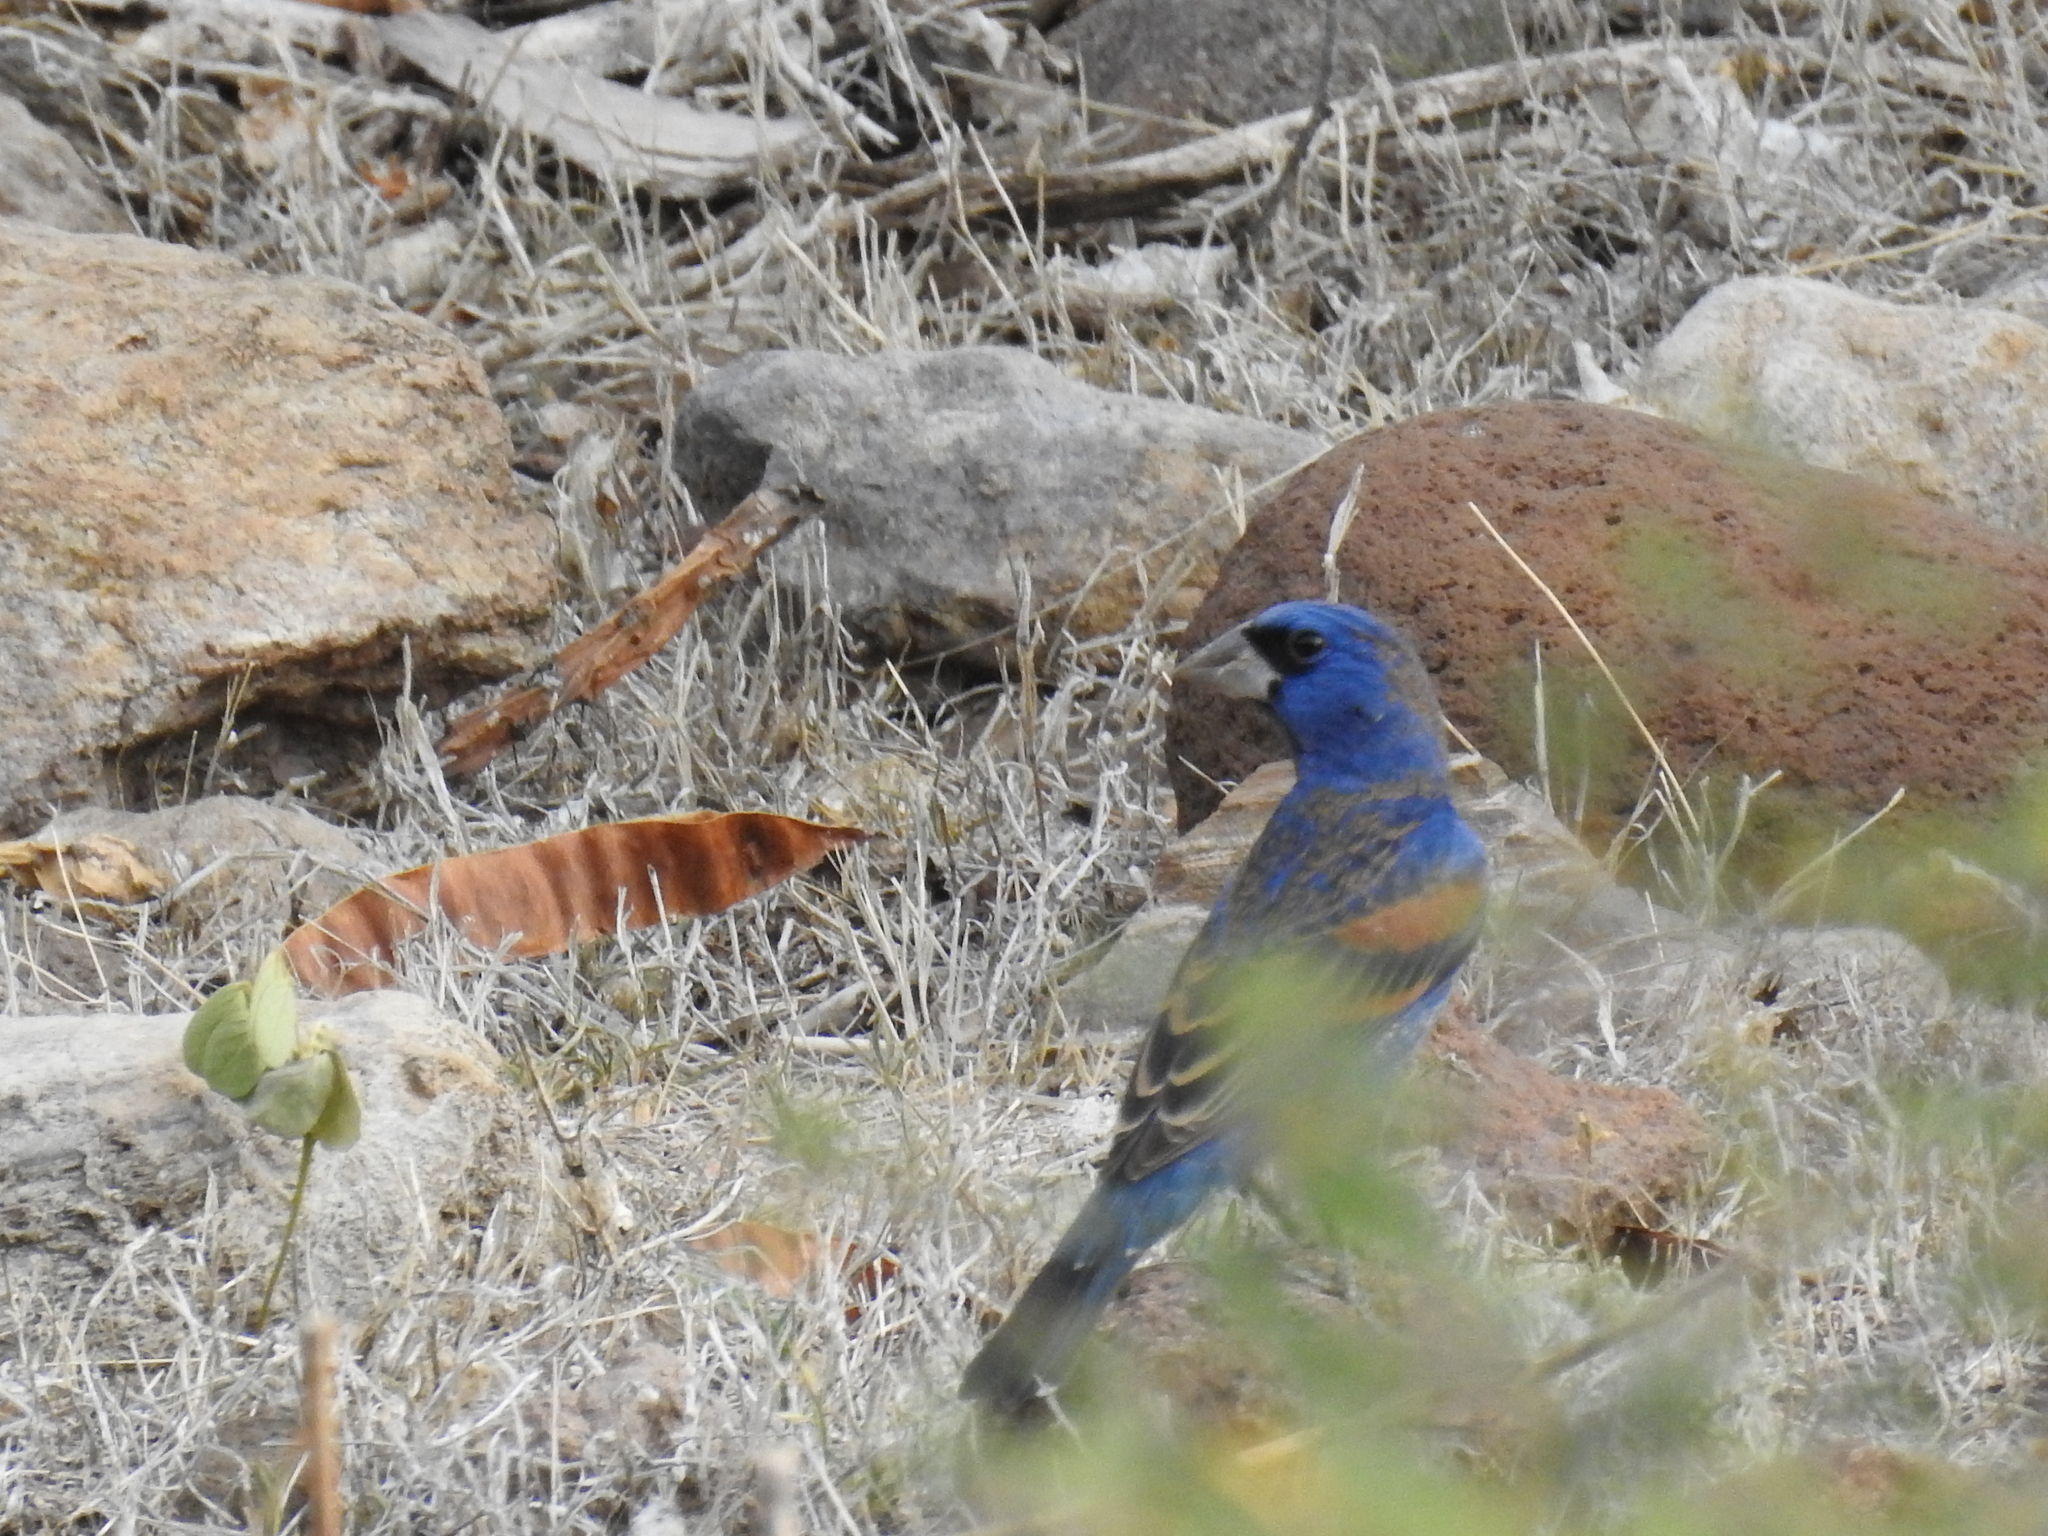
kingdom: Animalia
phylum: Chordata
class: Aves
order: Passeriformes
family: Cardinalidae
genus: Passerina
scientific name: Passerina caerulea
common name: Blue grosbeak
